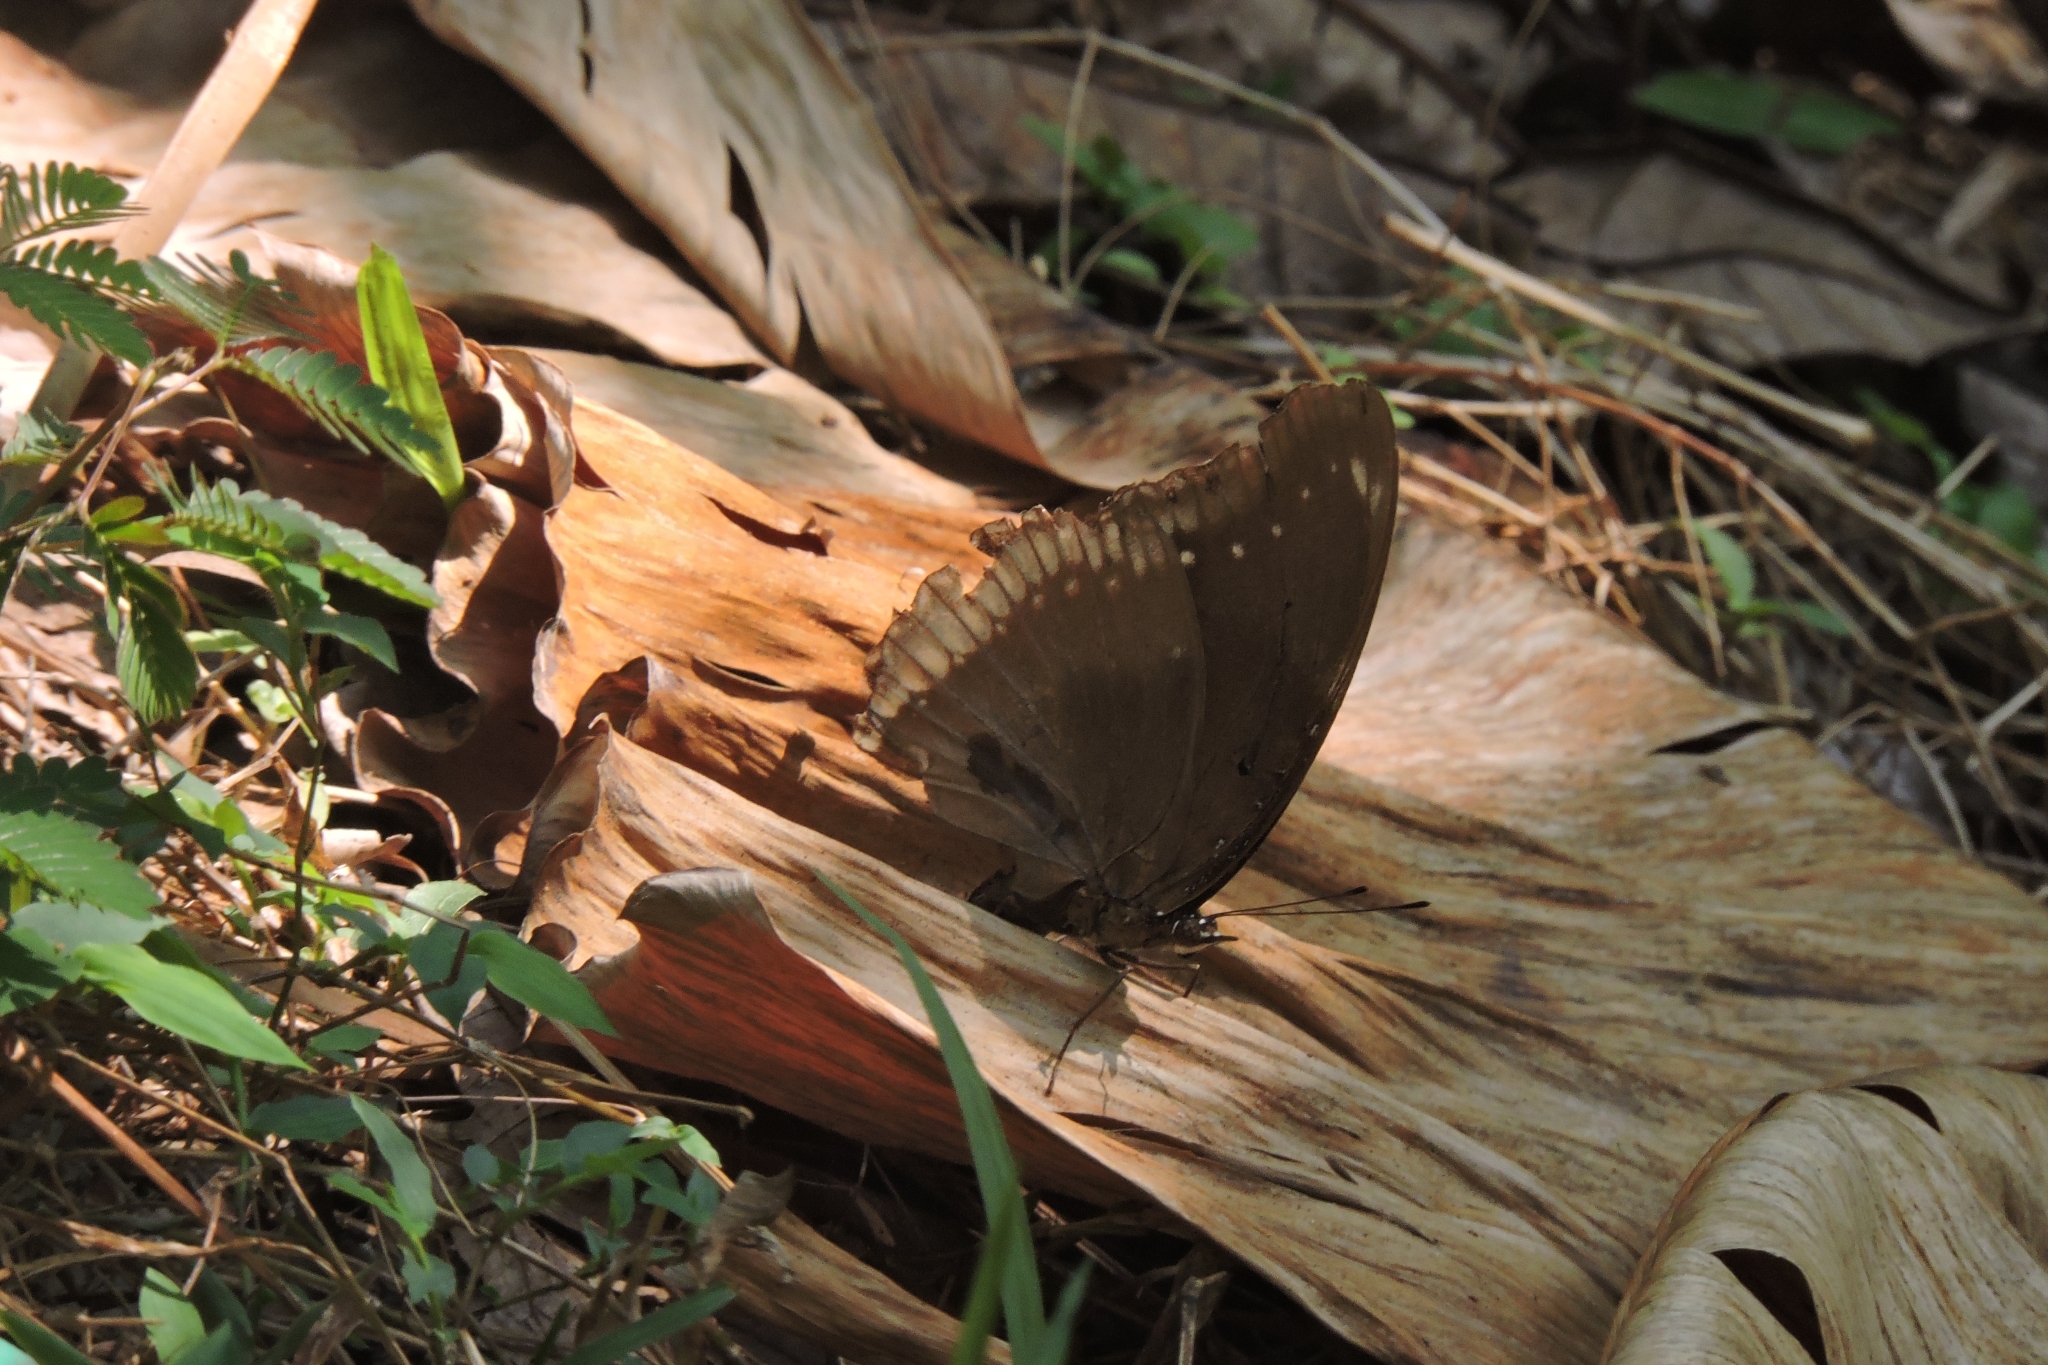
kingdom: Animalia
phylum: Arthropoda
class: Insecta
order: Lepidoptera
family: Nymphalidae
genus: Hypolimnas
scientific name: Hypolimnas bolina
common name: Great eggfly
